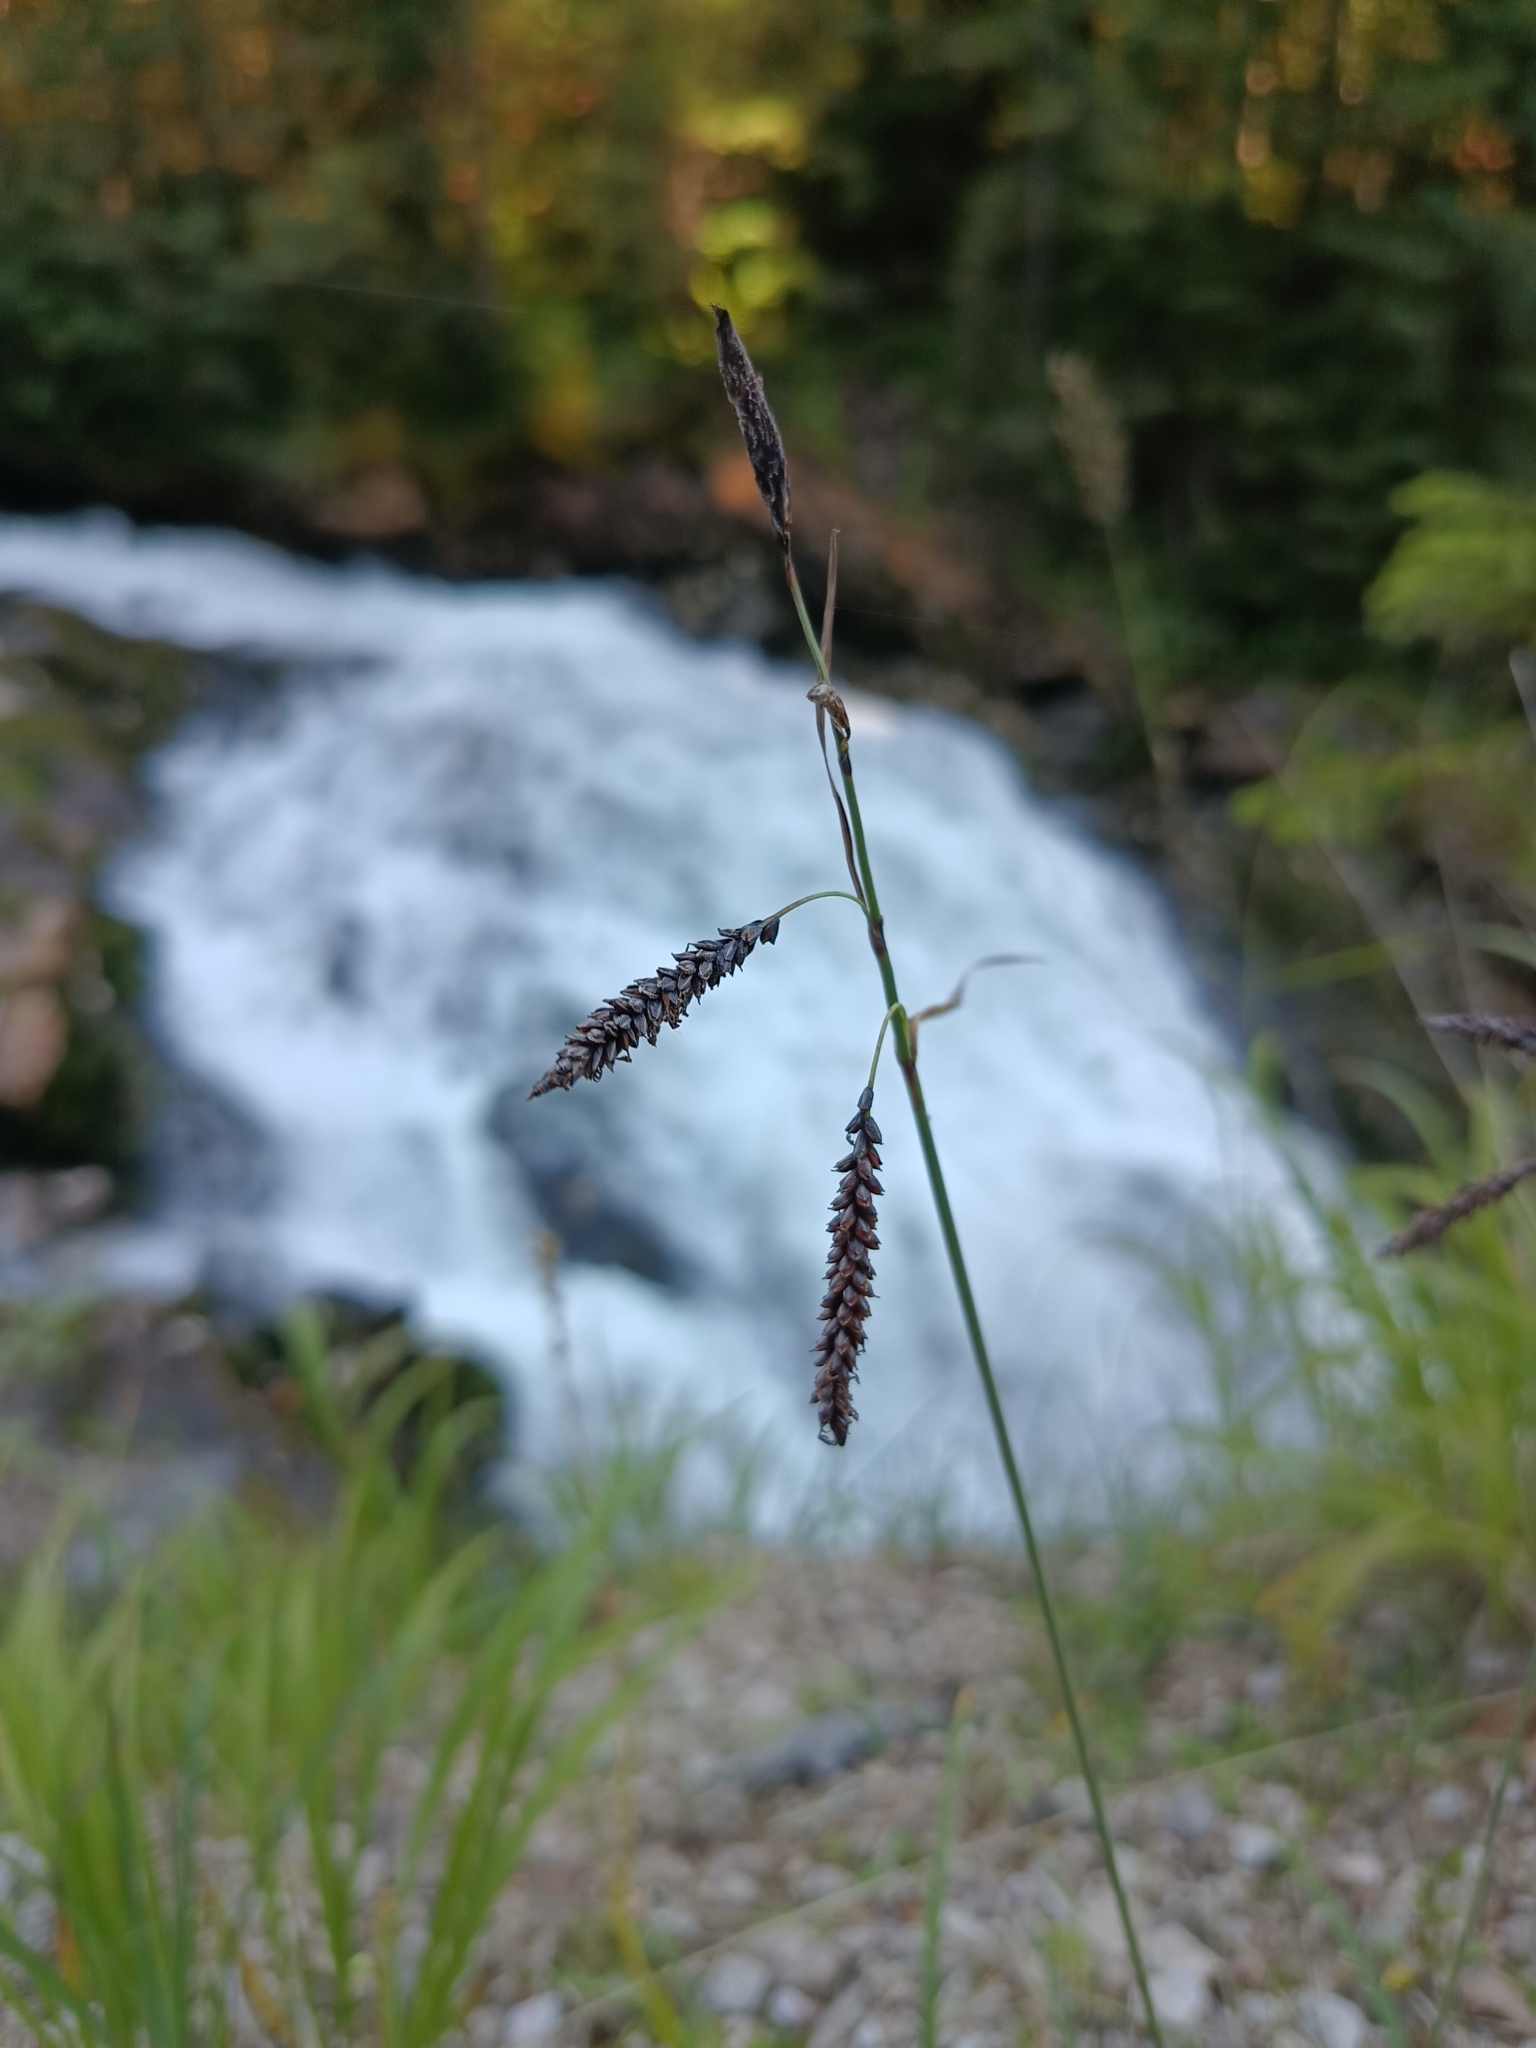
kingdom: Plantae
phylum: Tracheophyta
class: Liliopsida
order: Poales
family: Cyperaceae
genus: Carex
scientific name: Carex flacca
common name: Glaucous sedge
